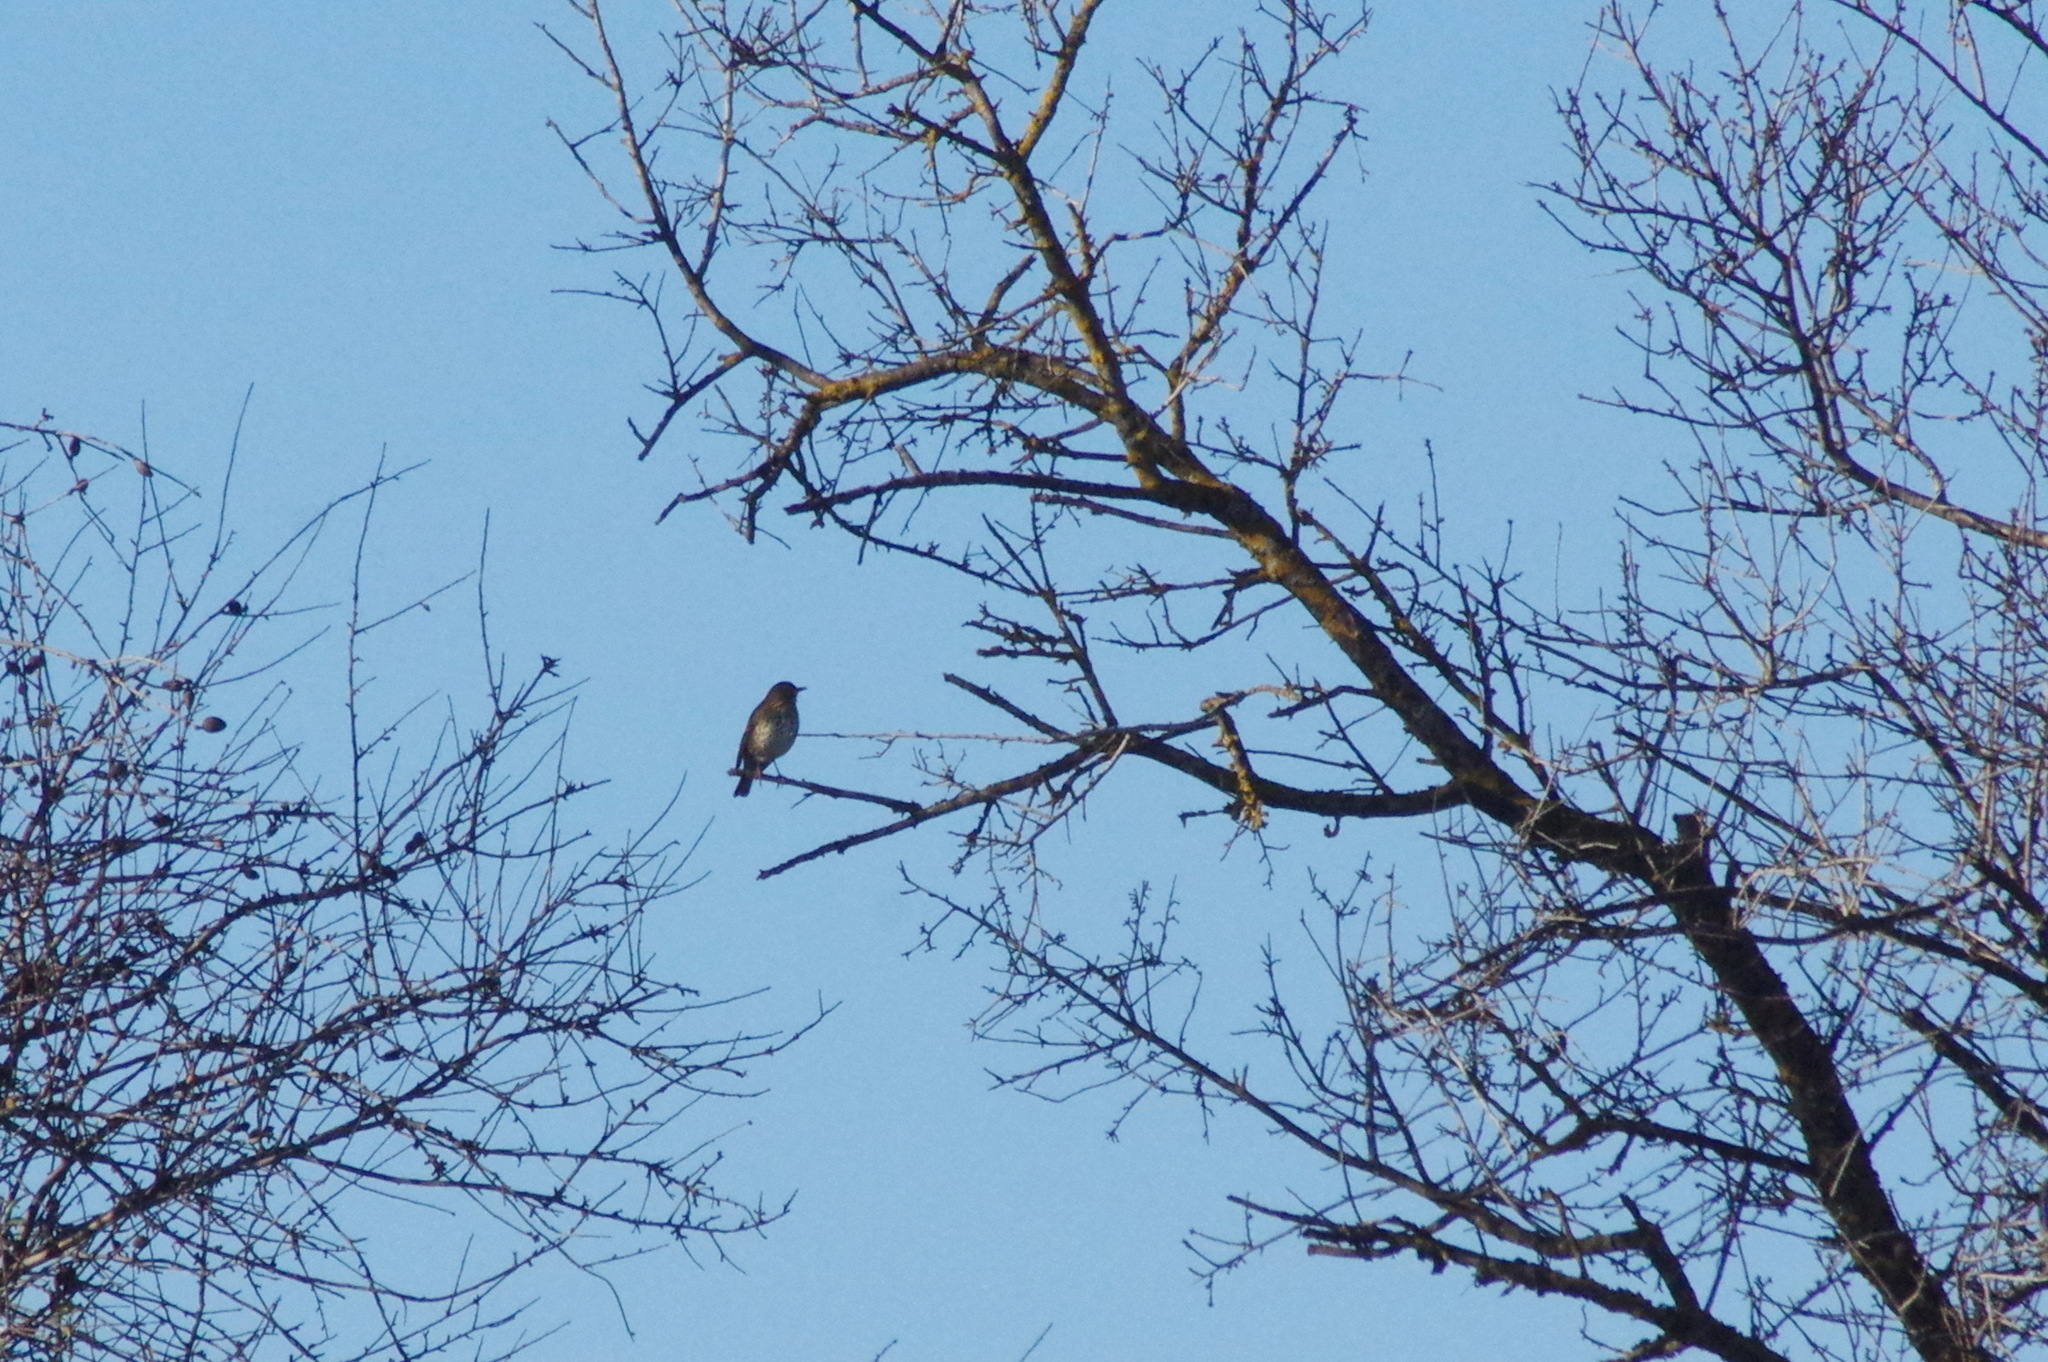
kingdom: Animalia
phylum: Chordata
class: Aves
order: Passeriformes
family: Turdidae
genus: Turdus
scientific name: Turdus philomelos
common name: Song thrush
